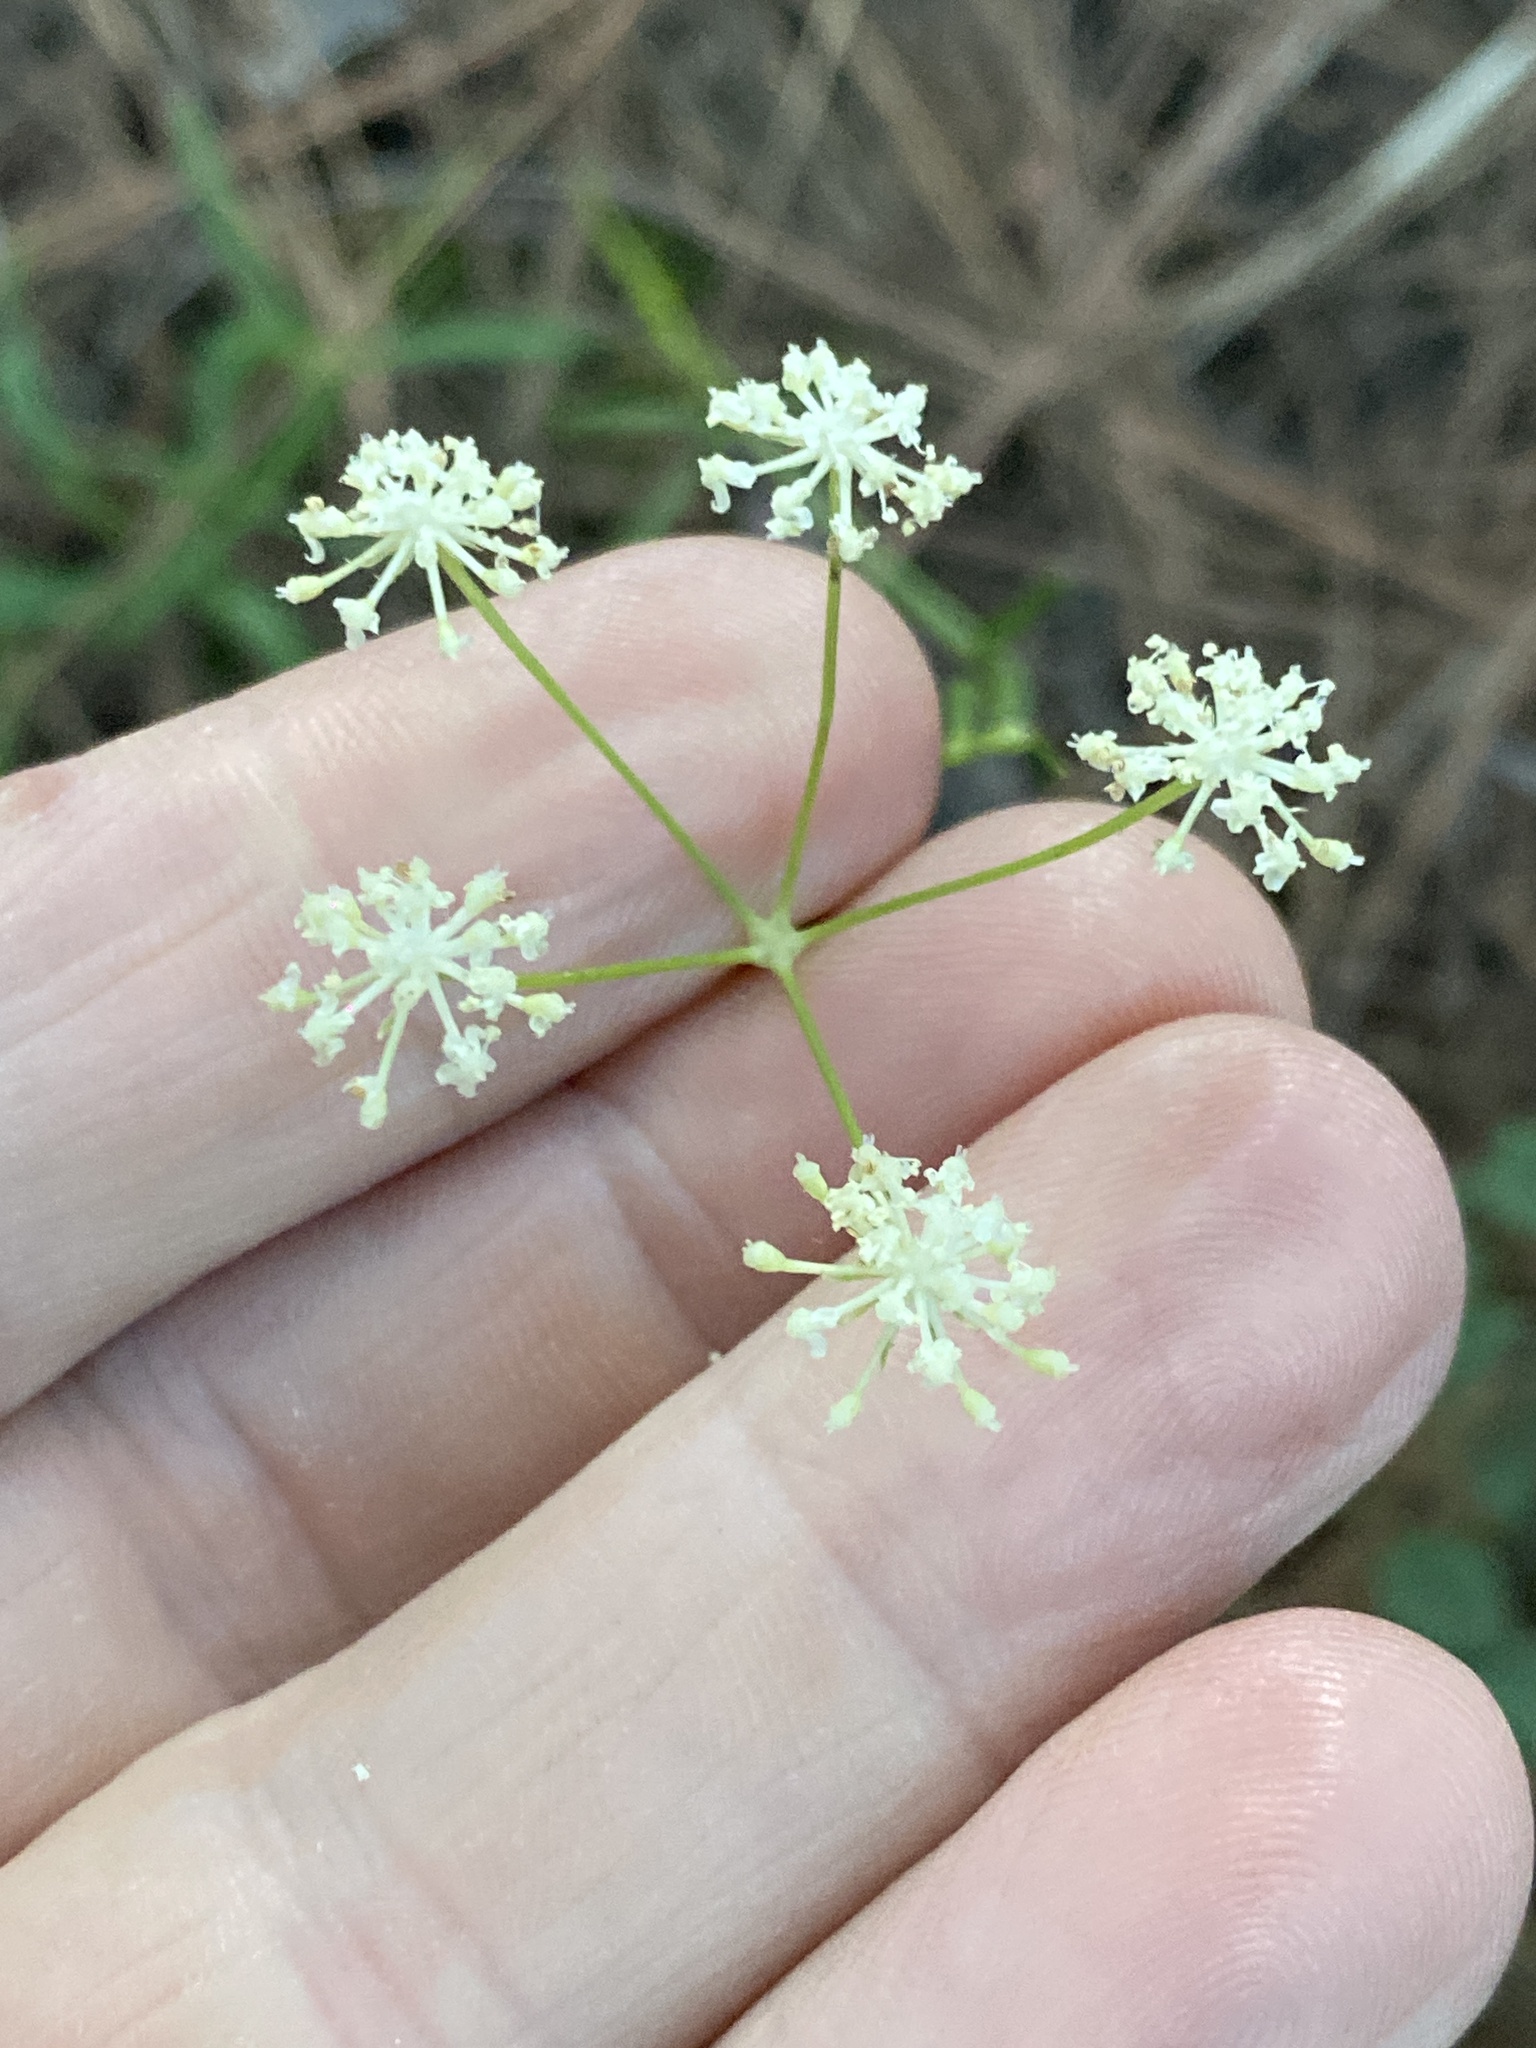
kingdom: Plantae
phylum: Tracheophyta
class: Magnoliopsida
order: Apiales
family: Apiaceae
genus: Seseli
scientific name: Seseli yunnanense
